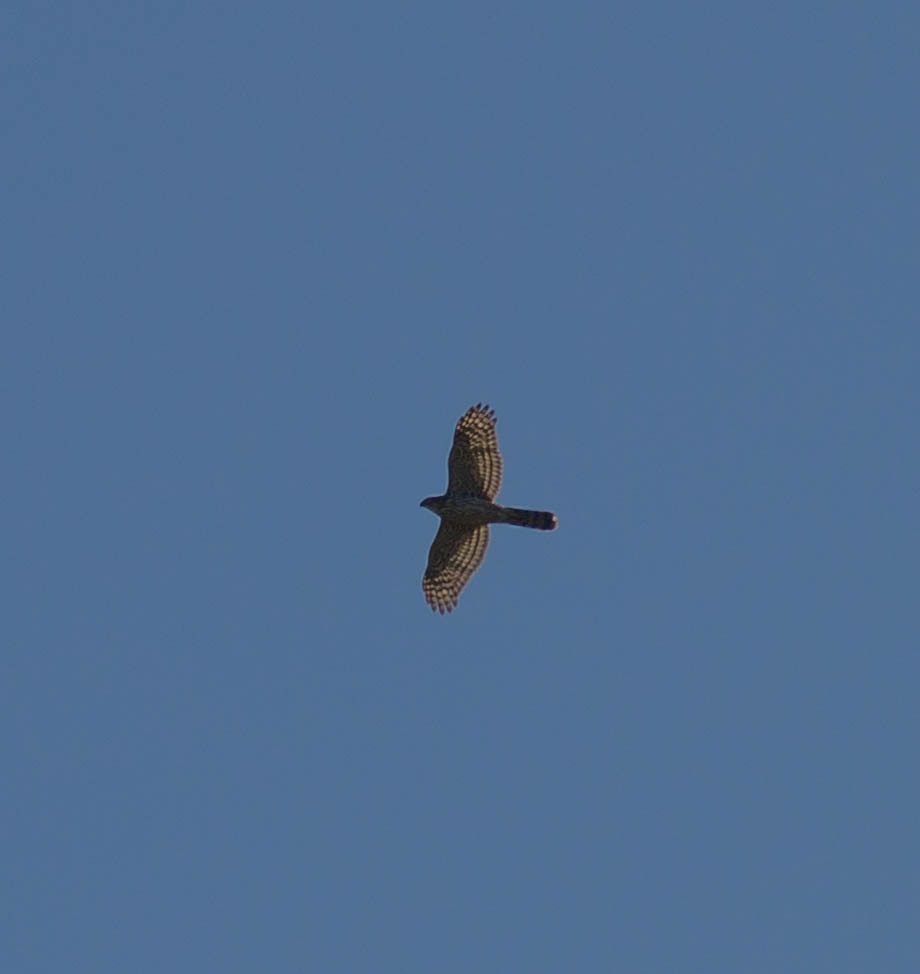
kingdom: Animalia
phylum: Chordata
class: Aves
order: Accipitriformes
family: Accipitridae
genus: Accipiter
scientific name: Accipiter cooperii
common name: Cooper's hawk
